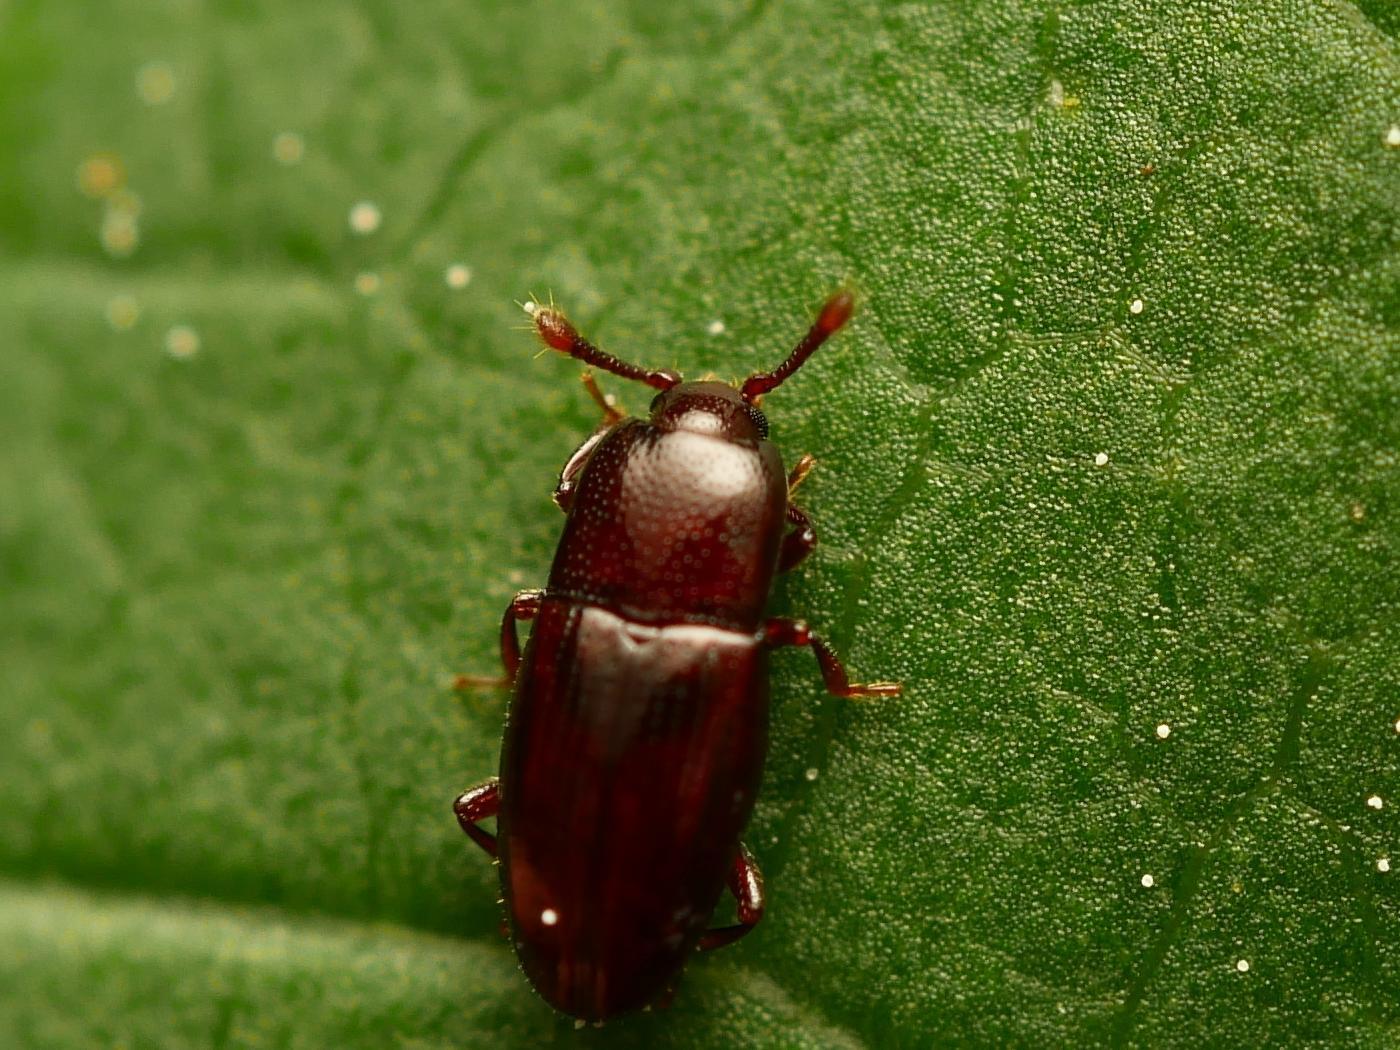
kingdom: Animalia
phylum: Arthropoda
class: Insecta
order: Coleoptera
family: Cerylonidae
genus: Cerylon
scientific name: Cerylon fagi
